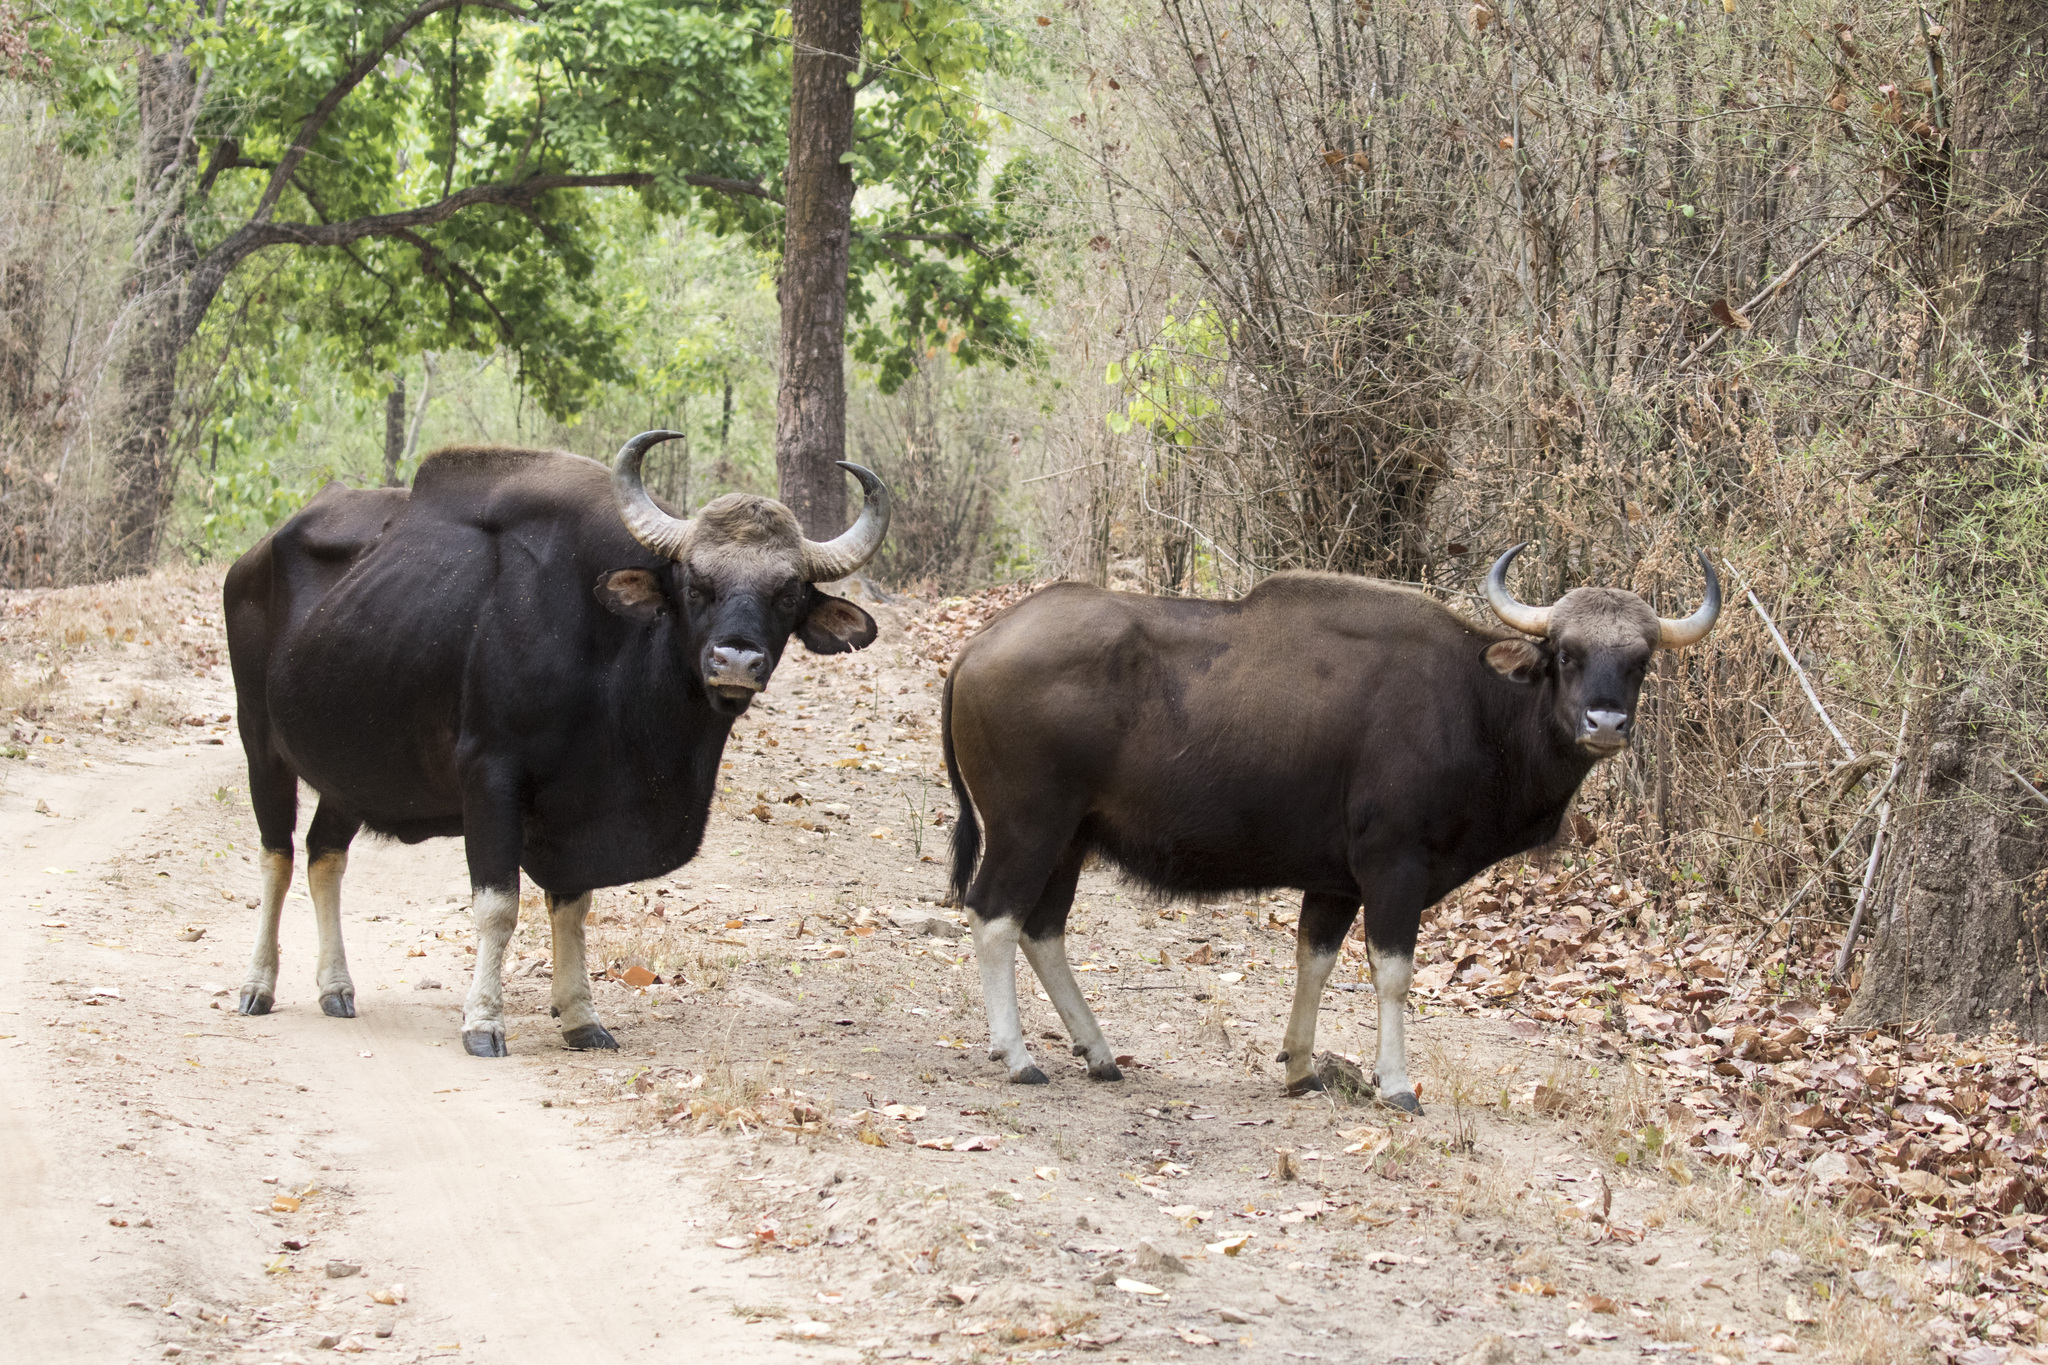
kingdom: Animalia
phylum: Chordata
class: Mammalia
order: Artiodactyla
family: Bovidae
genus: Bos
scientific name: Bos frontalis
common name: Gaur
